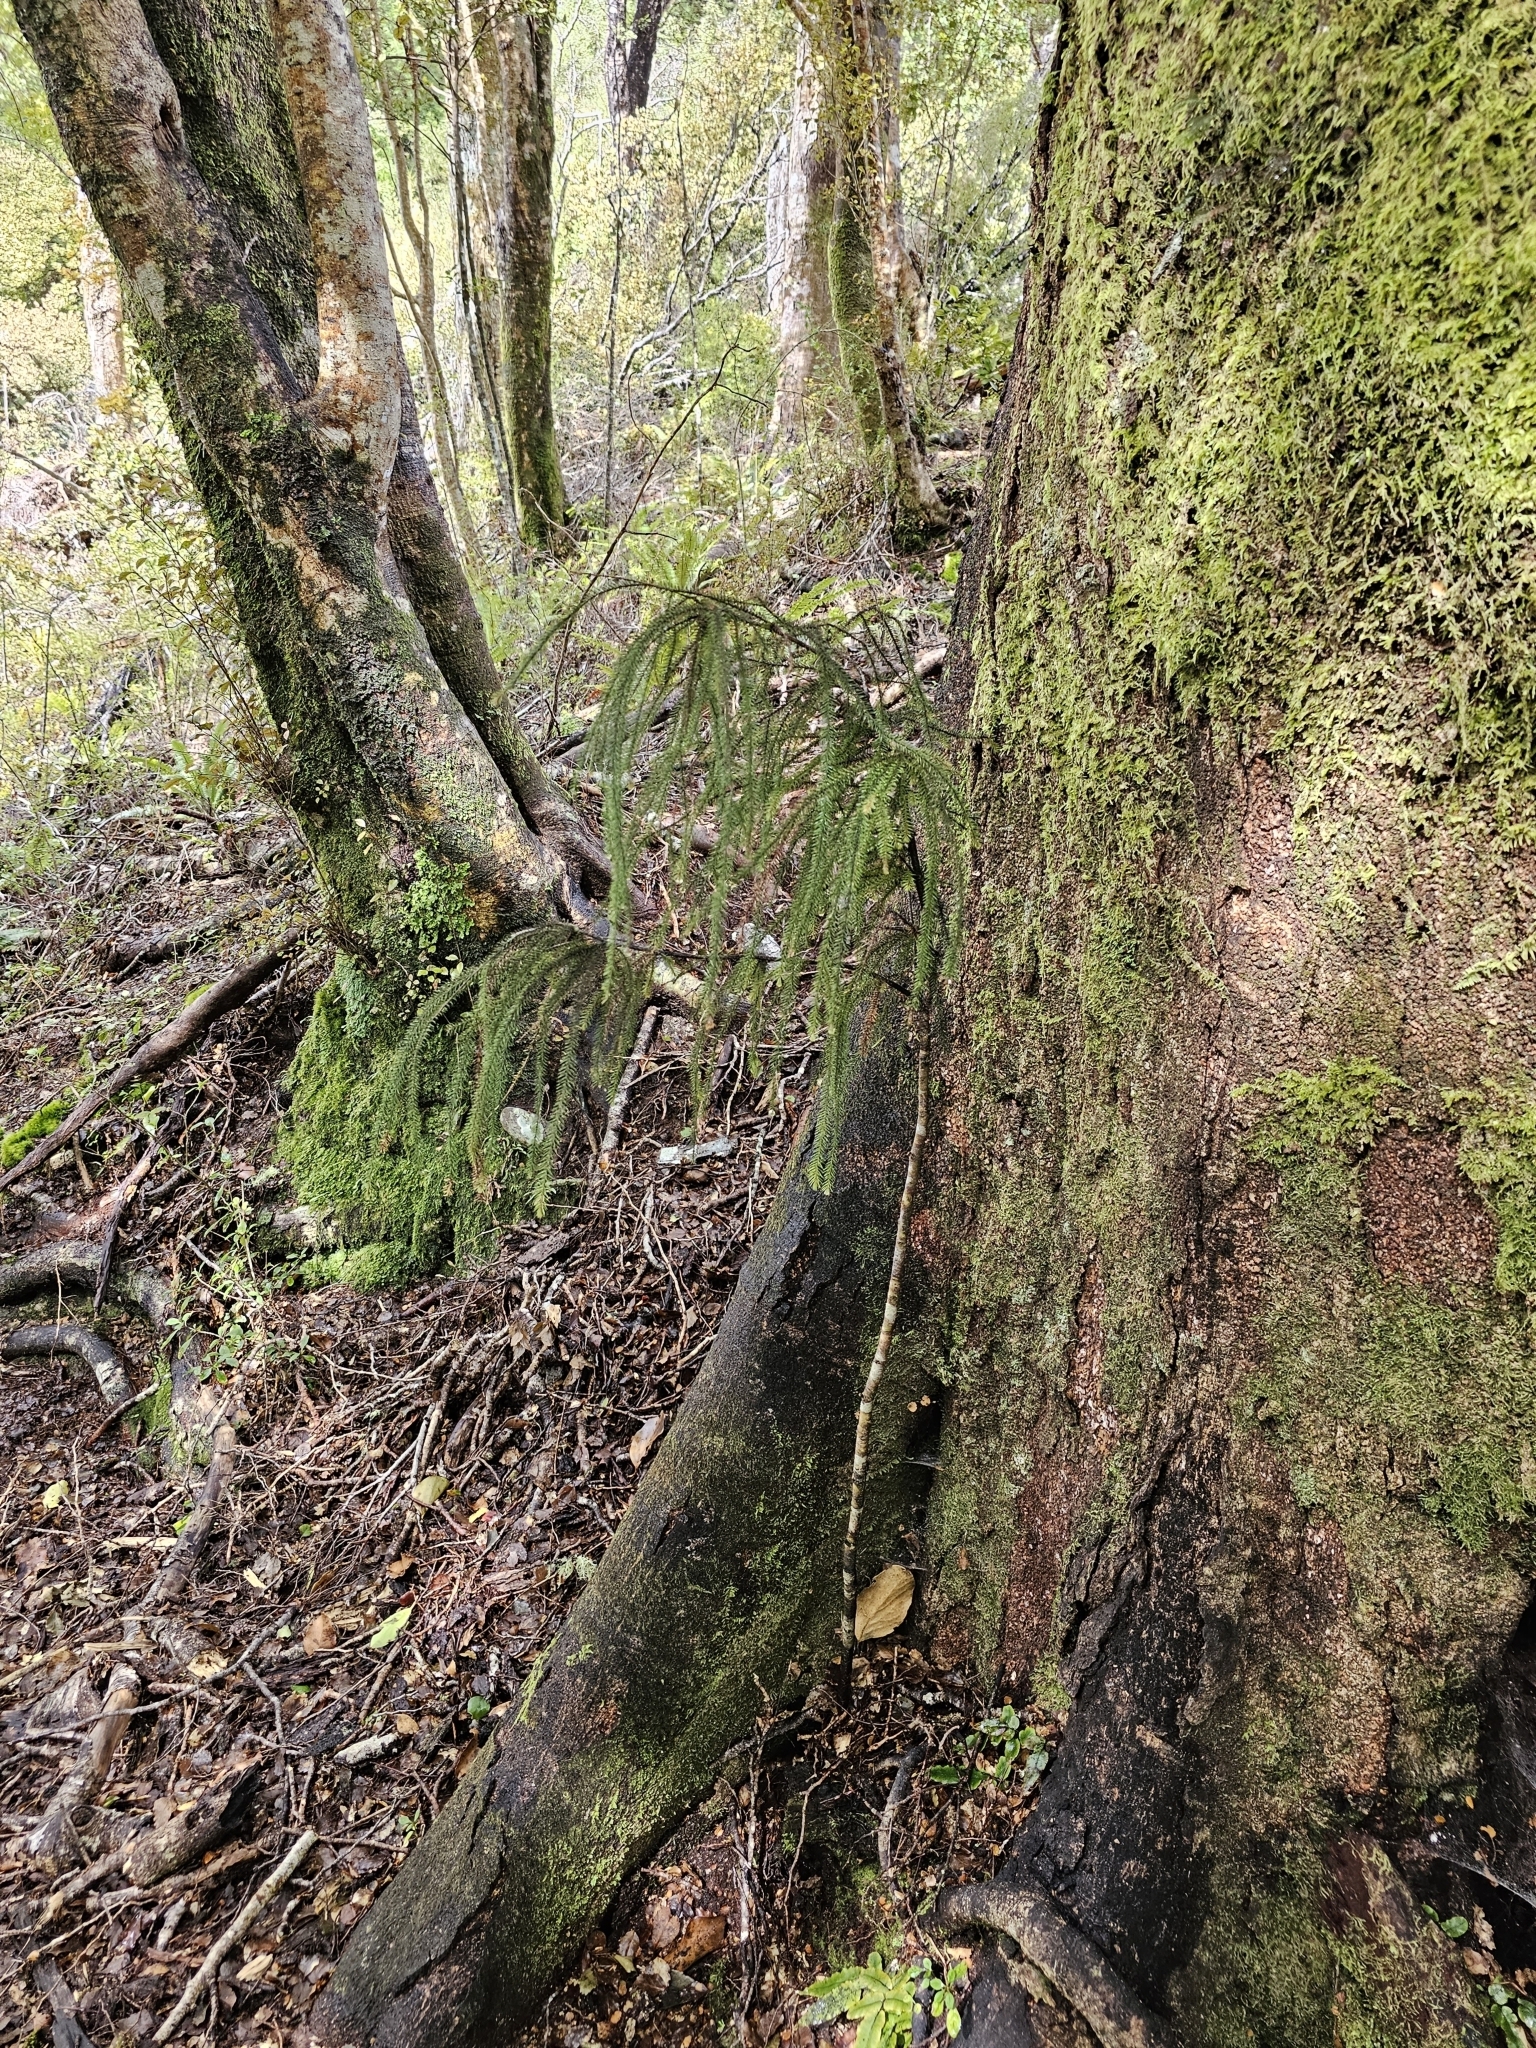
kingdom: Plantae
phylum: Tracheophyta
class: Pinopsida
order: Pinales
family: Podocarpaceae
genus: Dacrydium
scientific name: Dacrydium cupressinum
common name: Red pine
